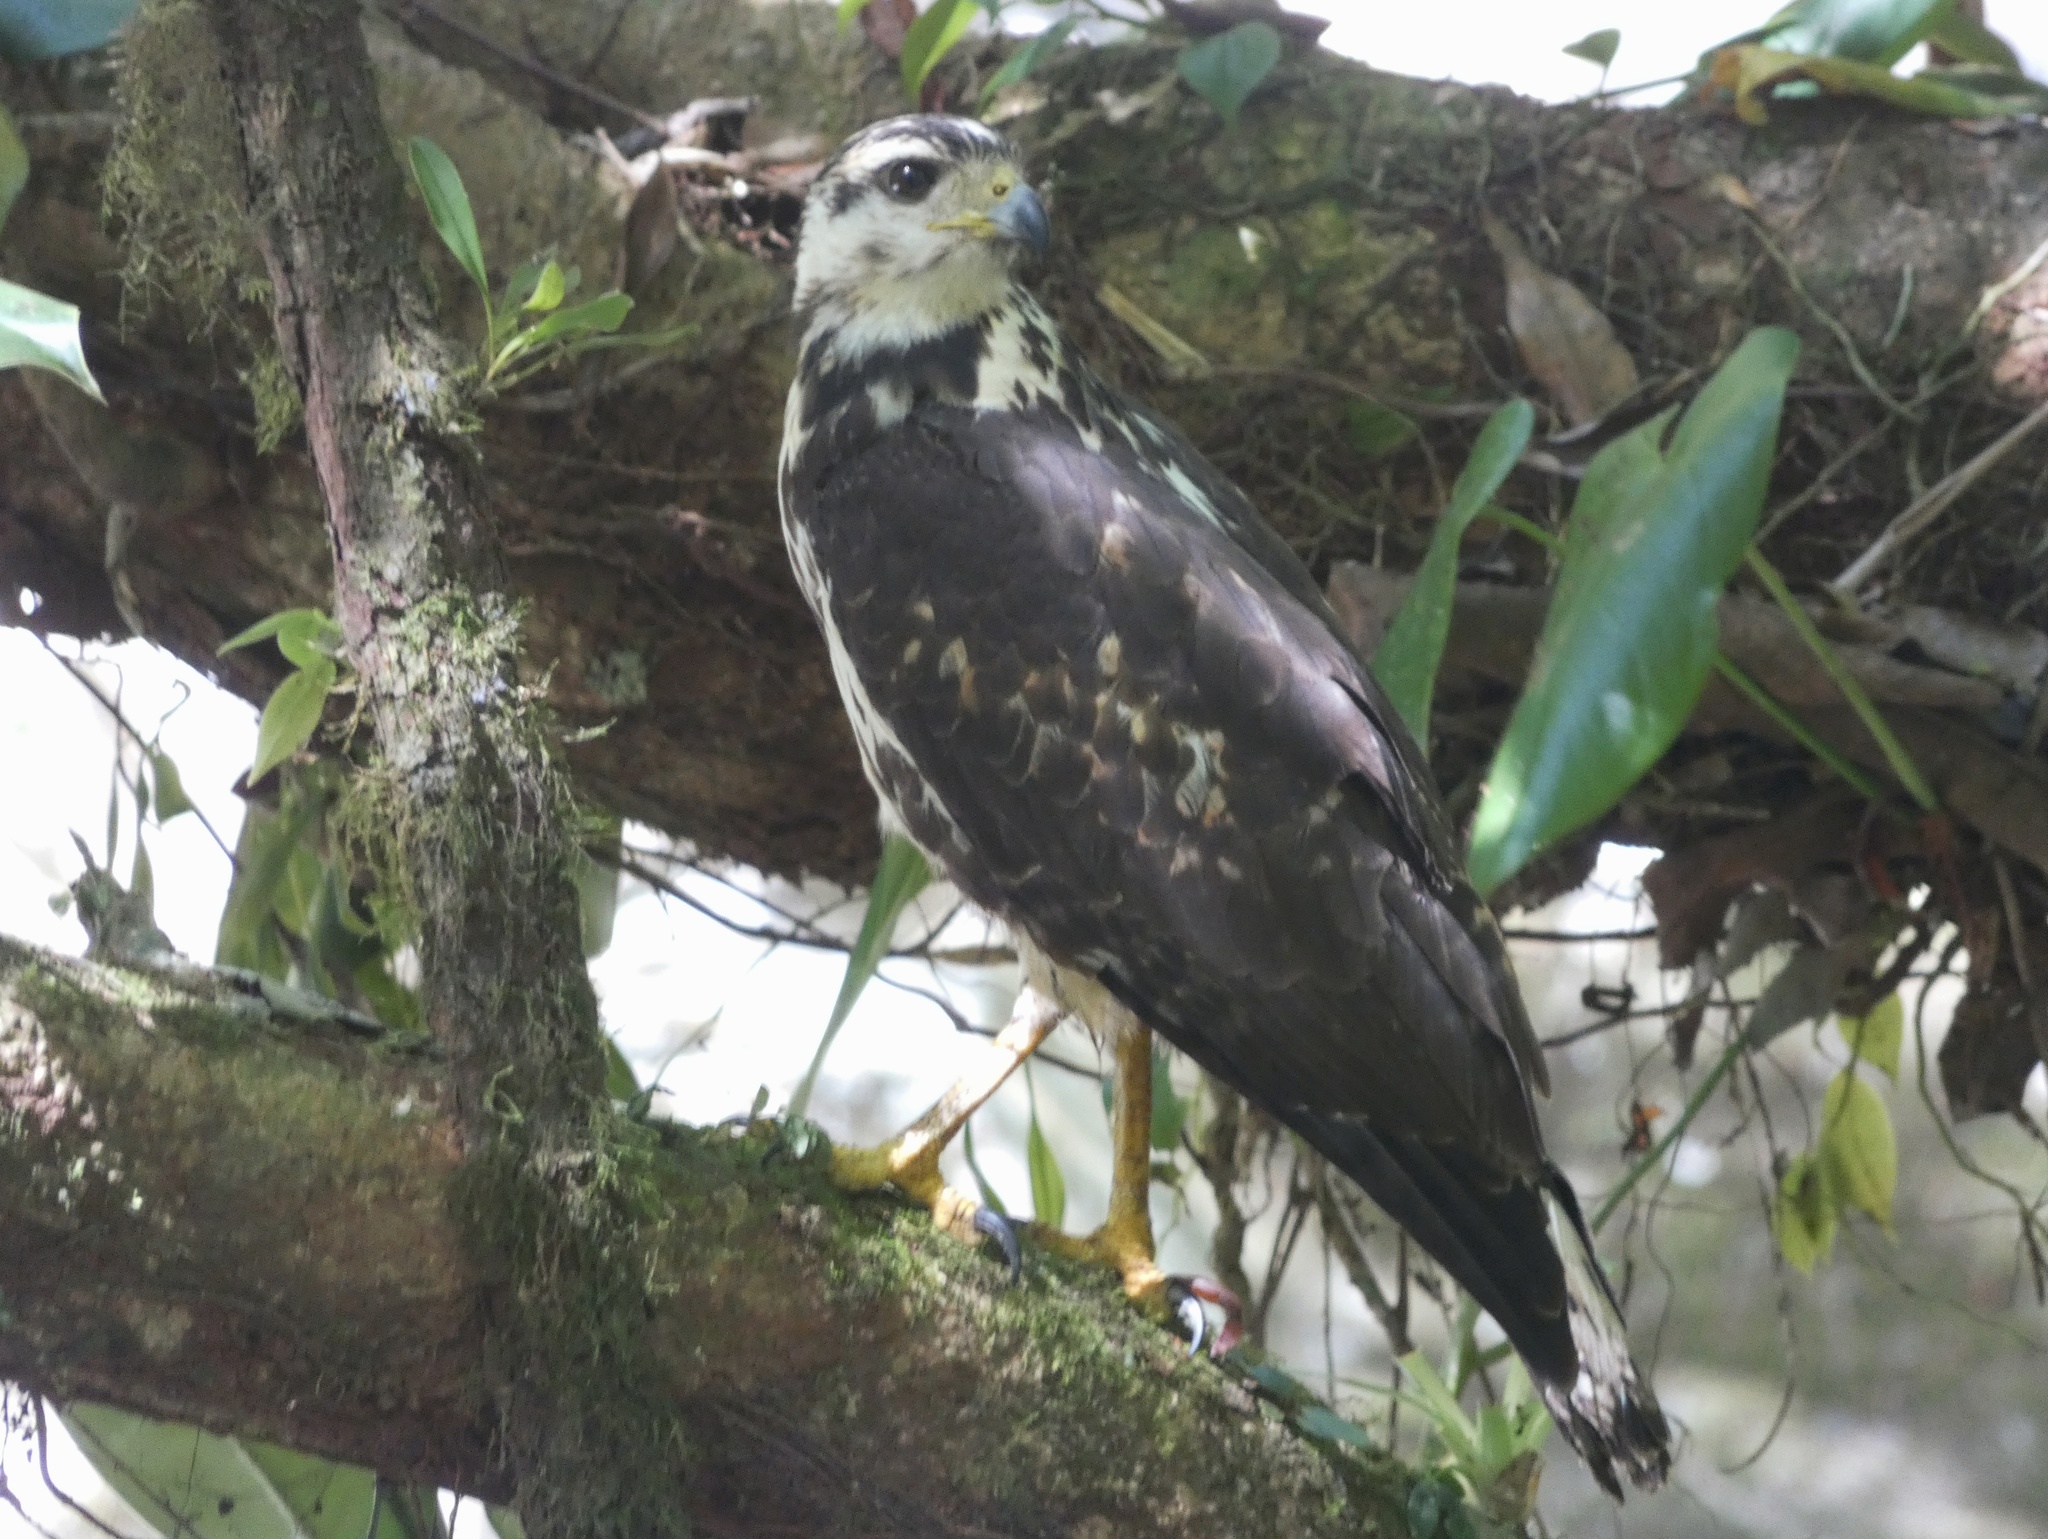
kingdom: Animalia
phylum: Chordata
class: Aves
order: Accipitriformes
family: Accipitridae
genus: Buteo
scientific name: Buteo nitidus
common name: Grey-lined hawk
